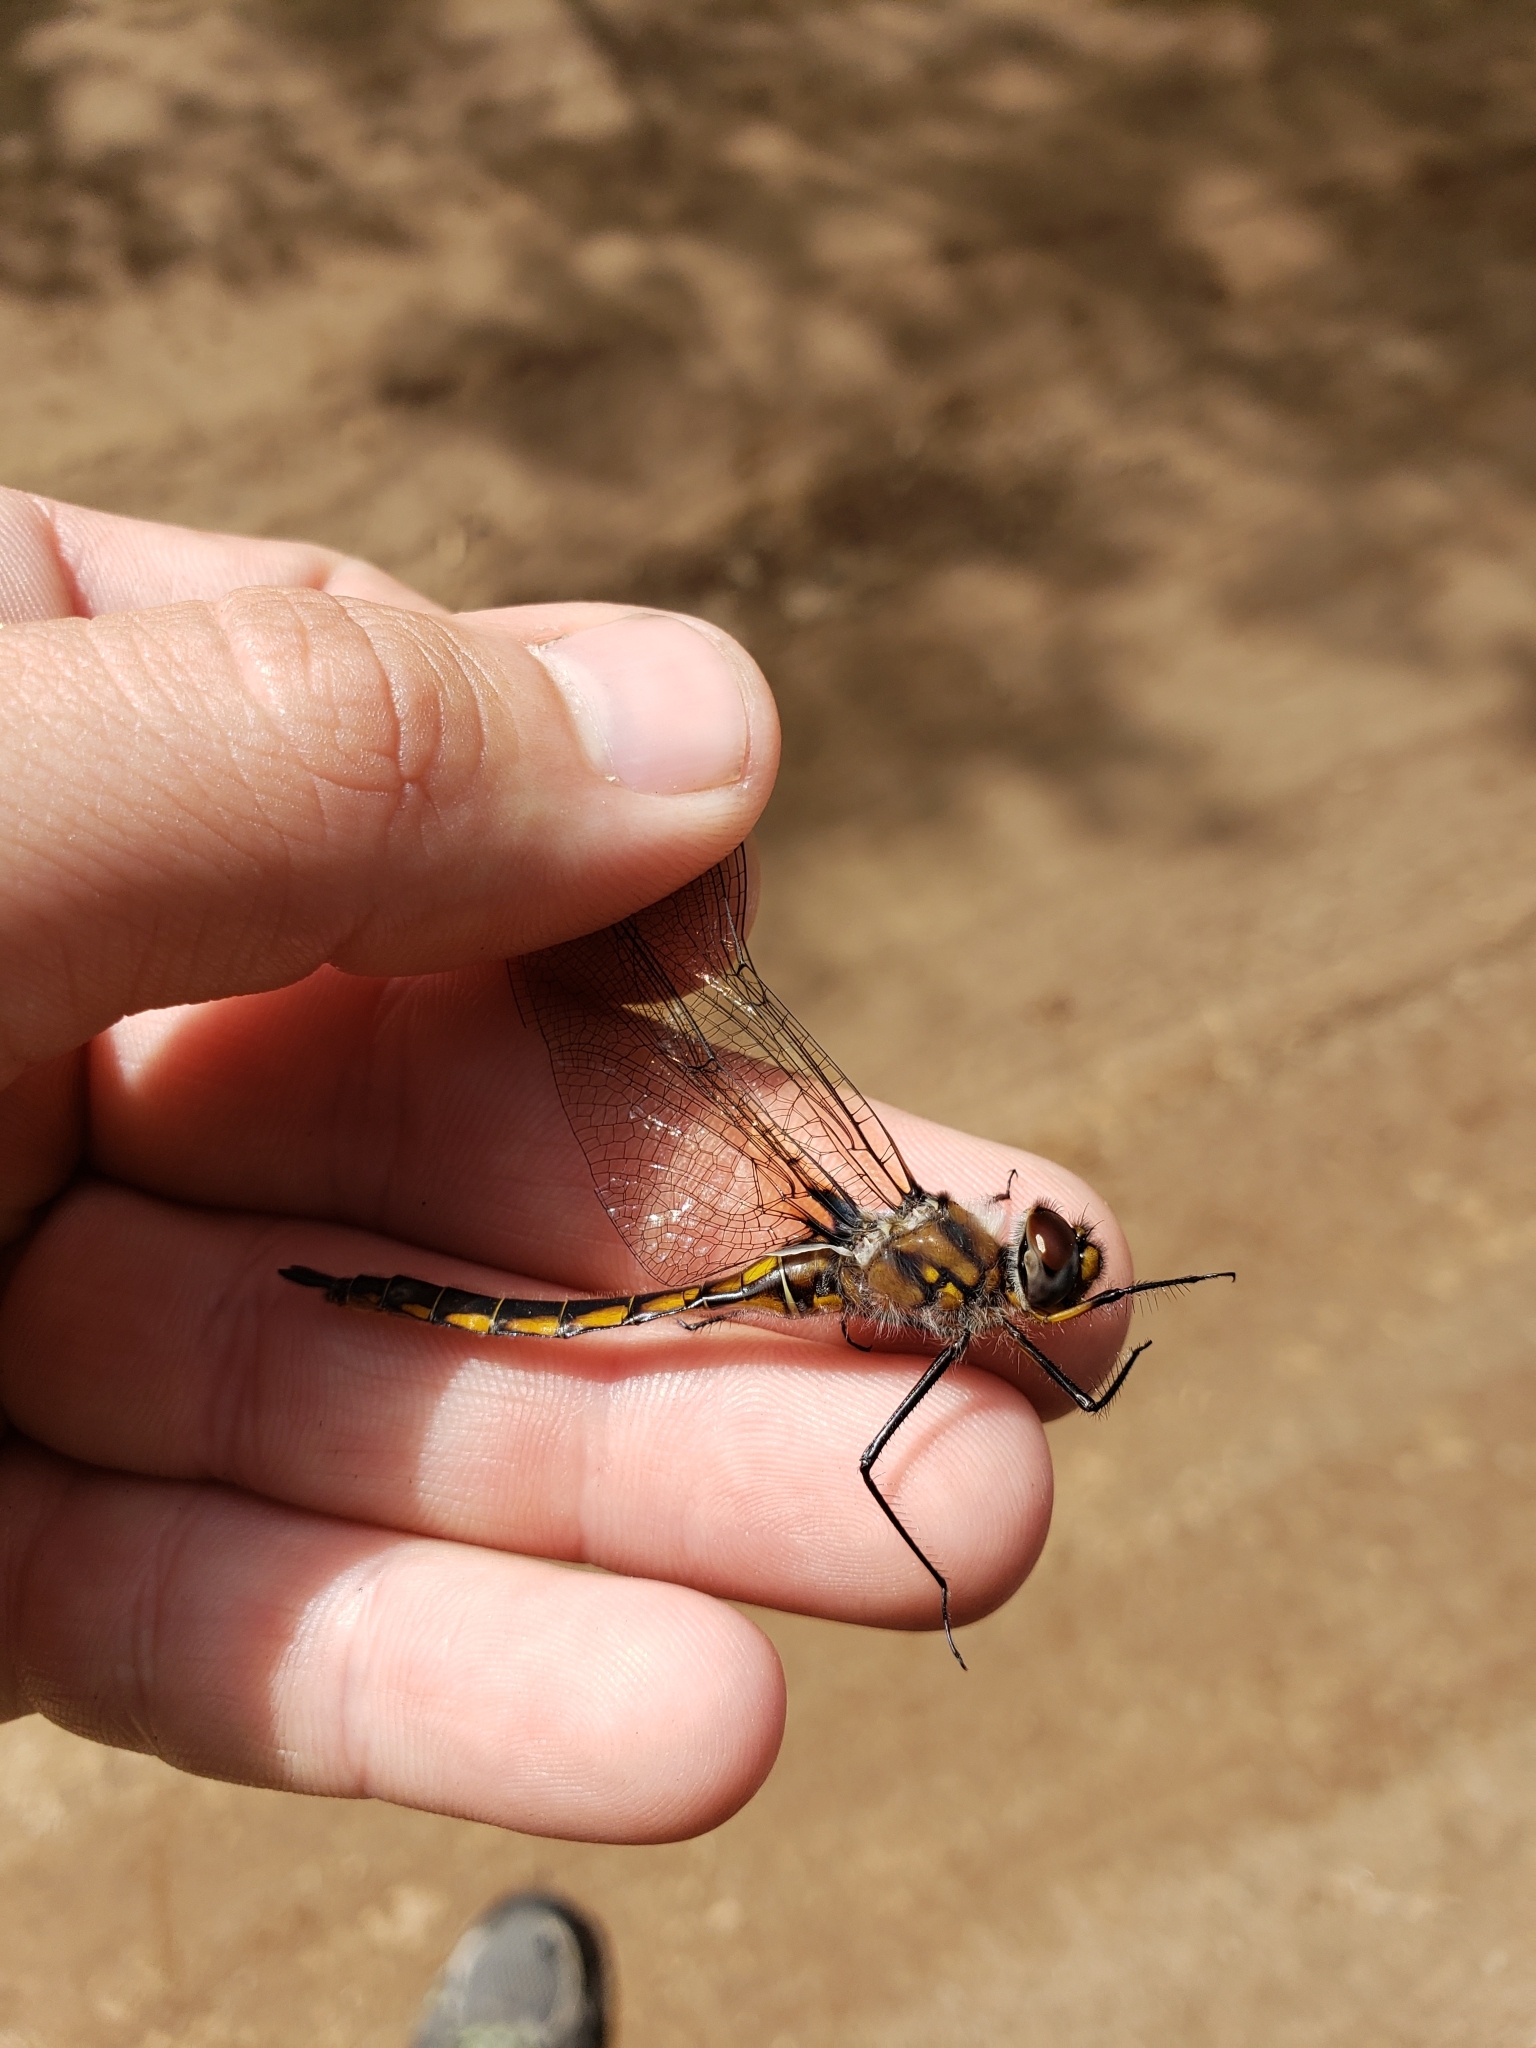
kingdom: Animalia
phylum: Arthropoda
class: Insecta
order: Odonata
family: Corduliidae
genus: Epitheca
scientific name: Epitheca spinigera
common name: Spiny baskettail
